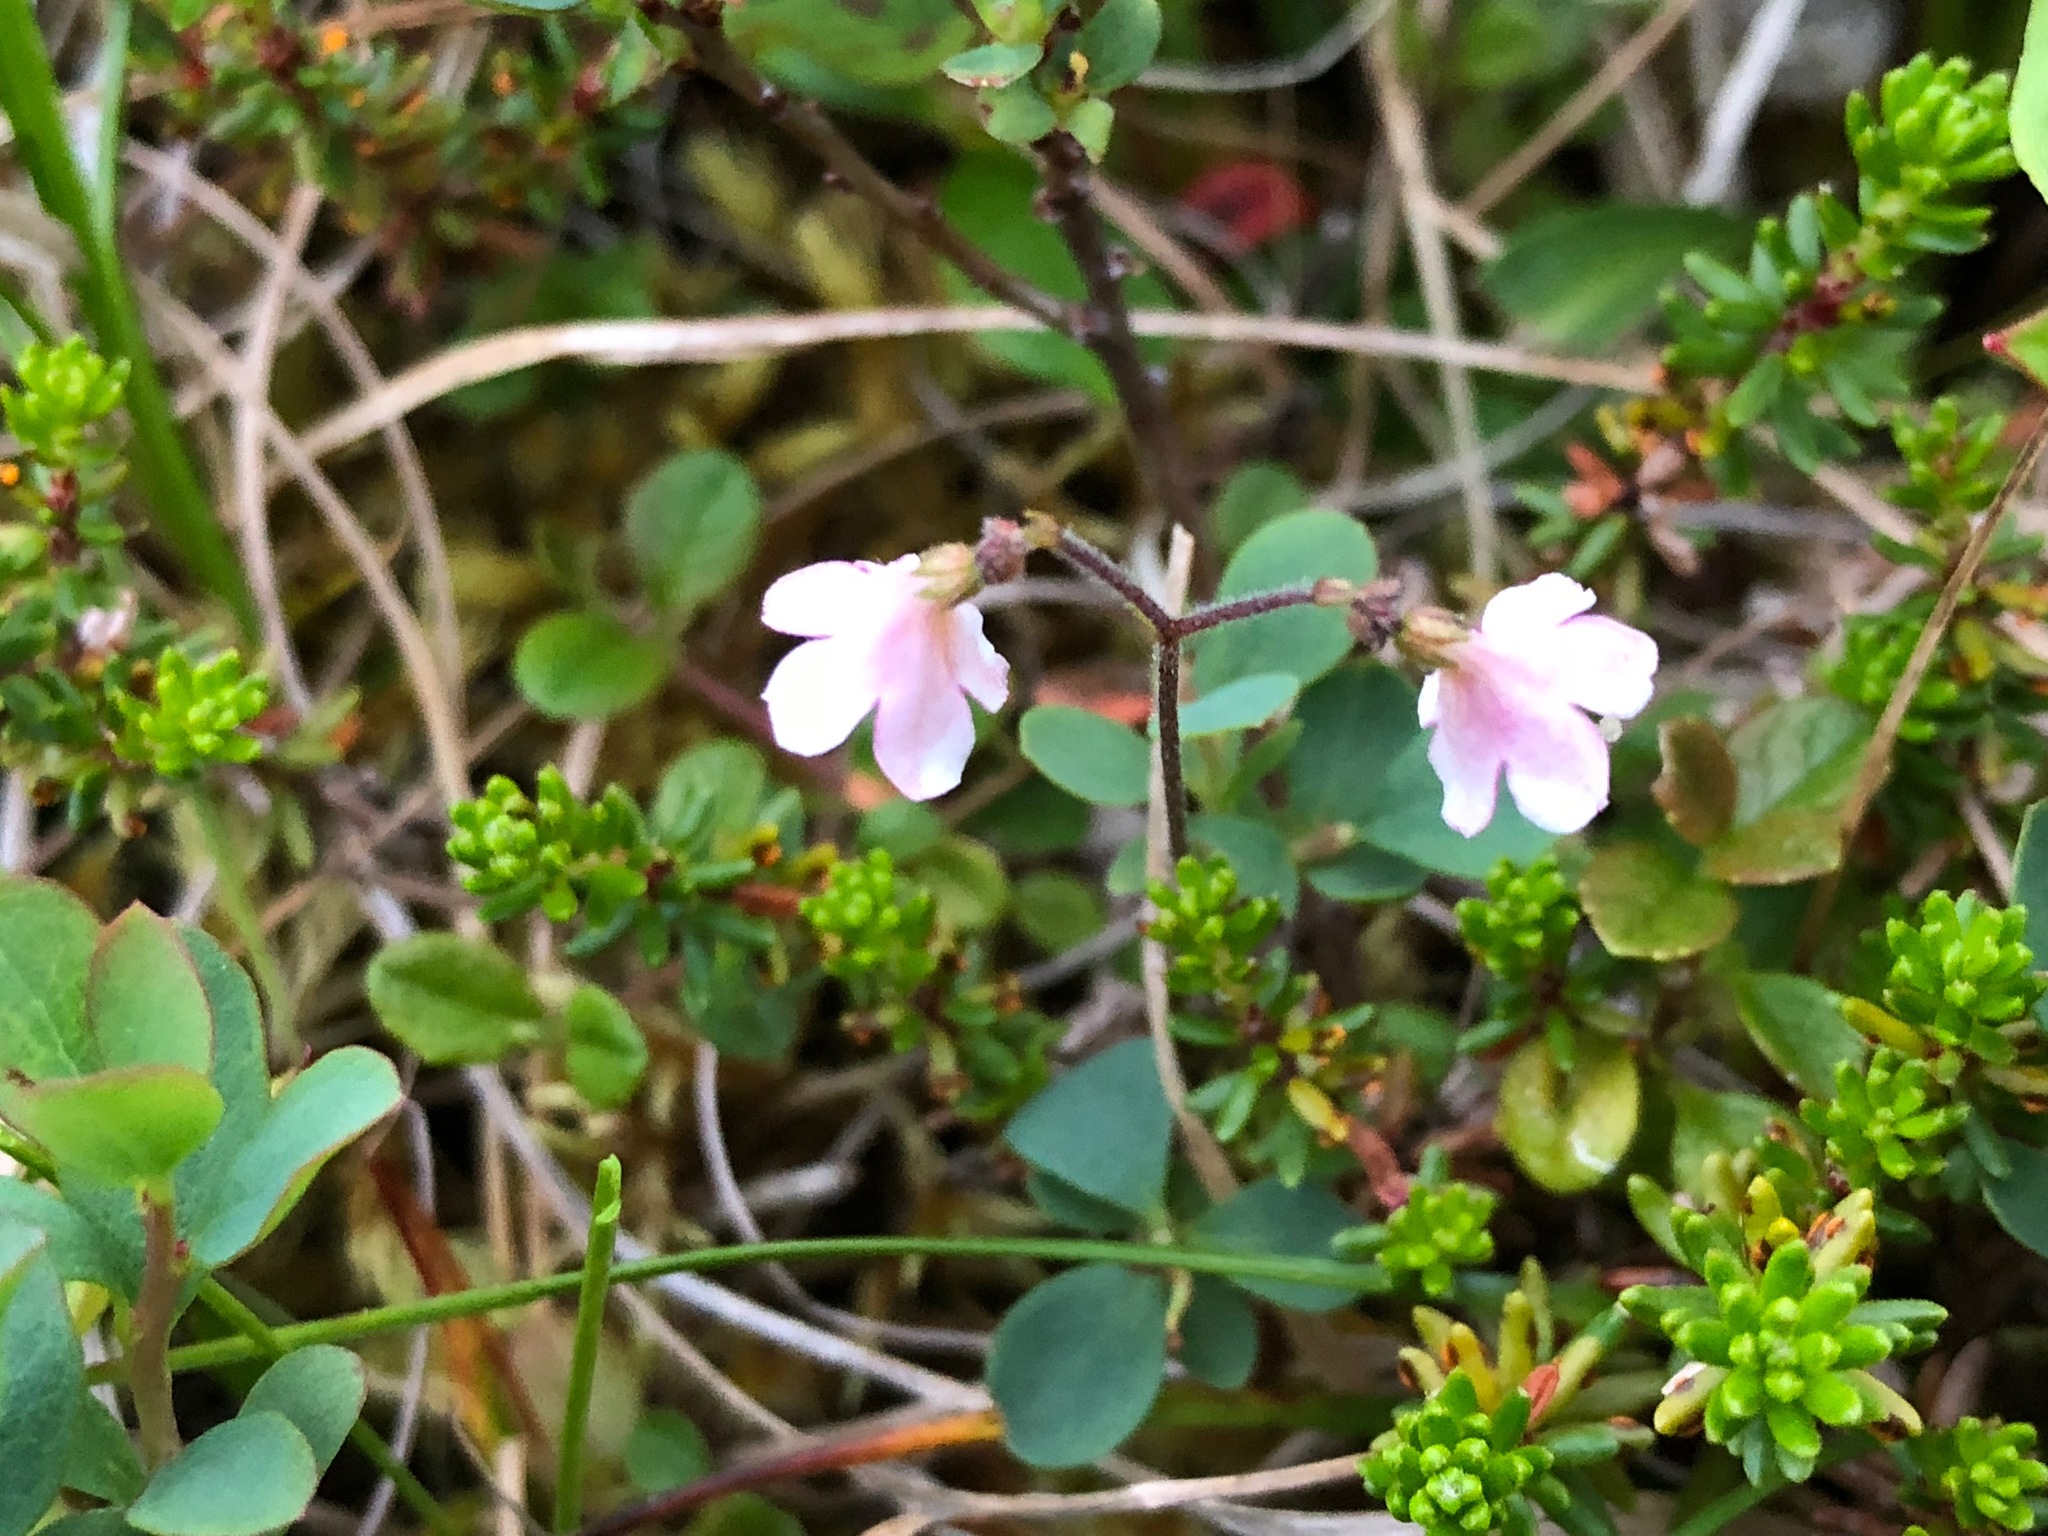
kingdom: Plantae
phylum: Tracheophyta
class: Magnoliopsida
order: Dipsacales
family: Caprifoliaceae
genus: Linnaea
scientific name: Linnaea borealis
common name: Twinflower
